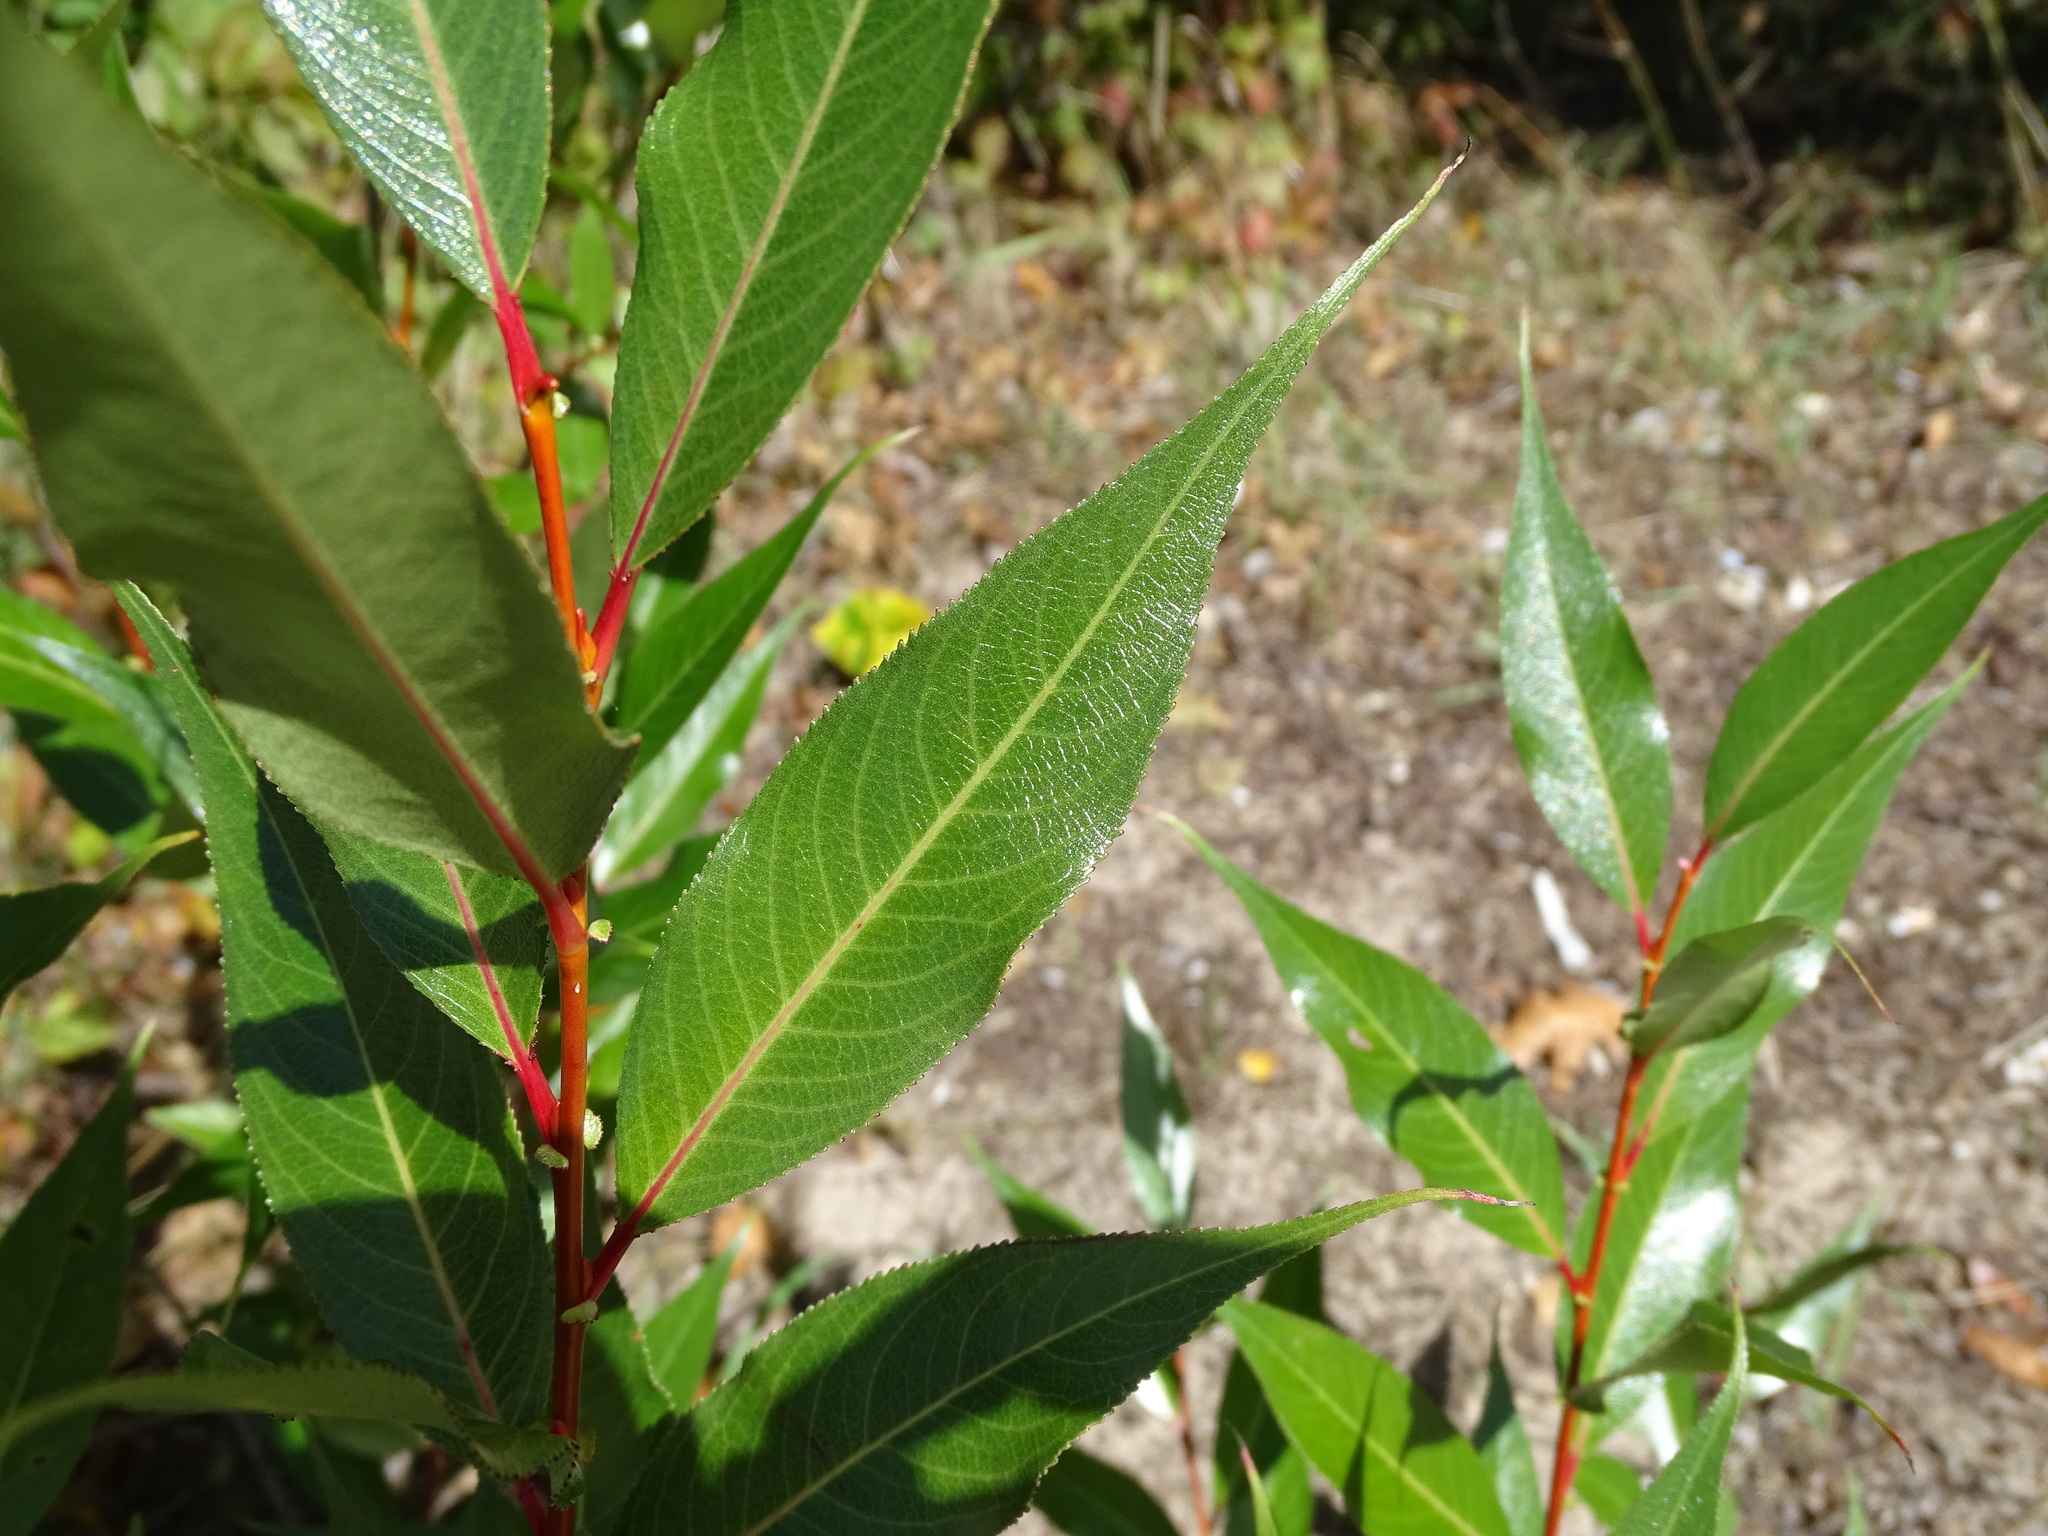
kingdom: Plantae
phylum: Tracheophyta
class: Magnoliopsida
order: Malpighiales
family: Salicaceae
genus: Salix
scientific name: Salix lucida
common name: Shining willow
